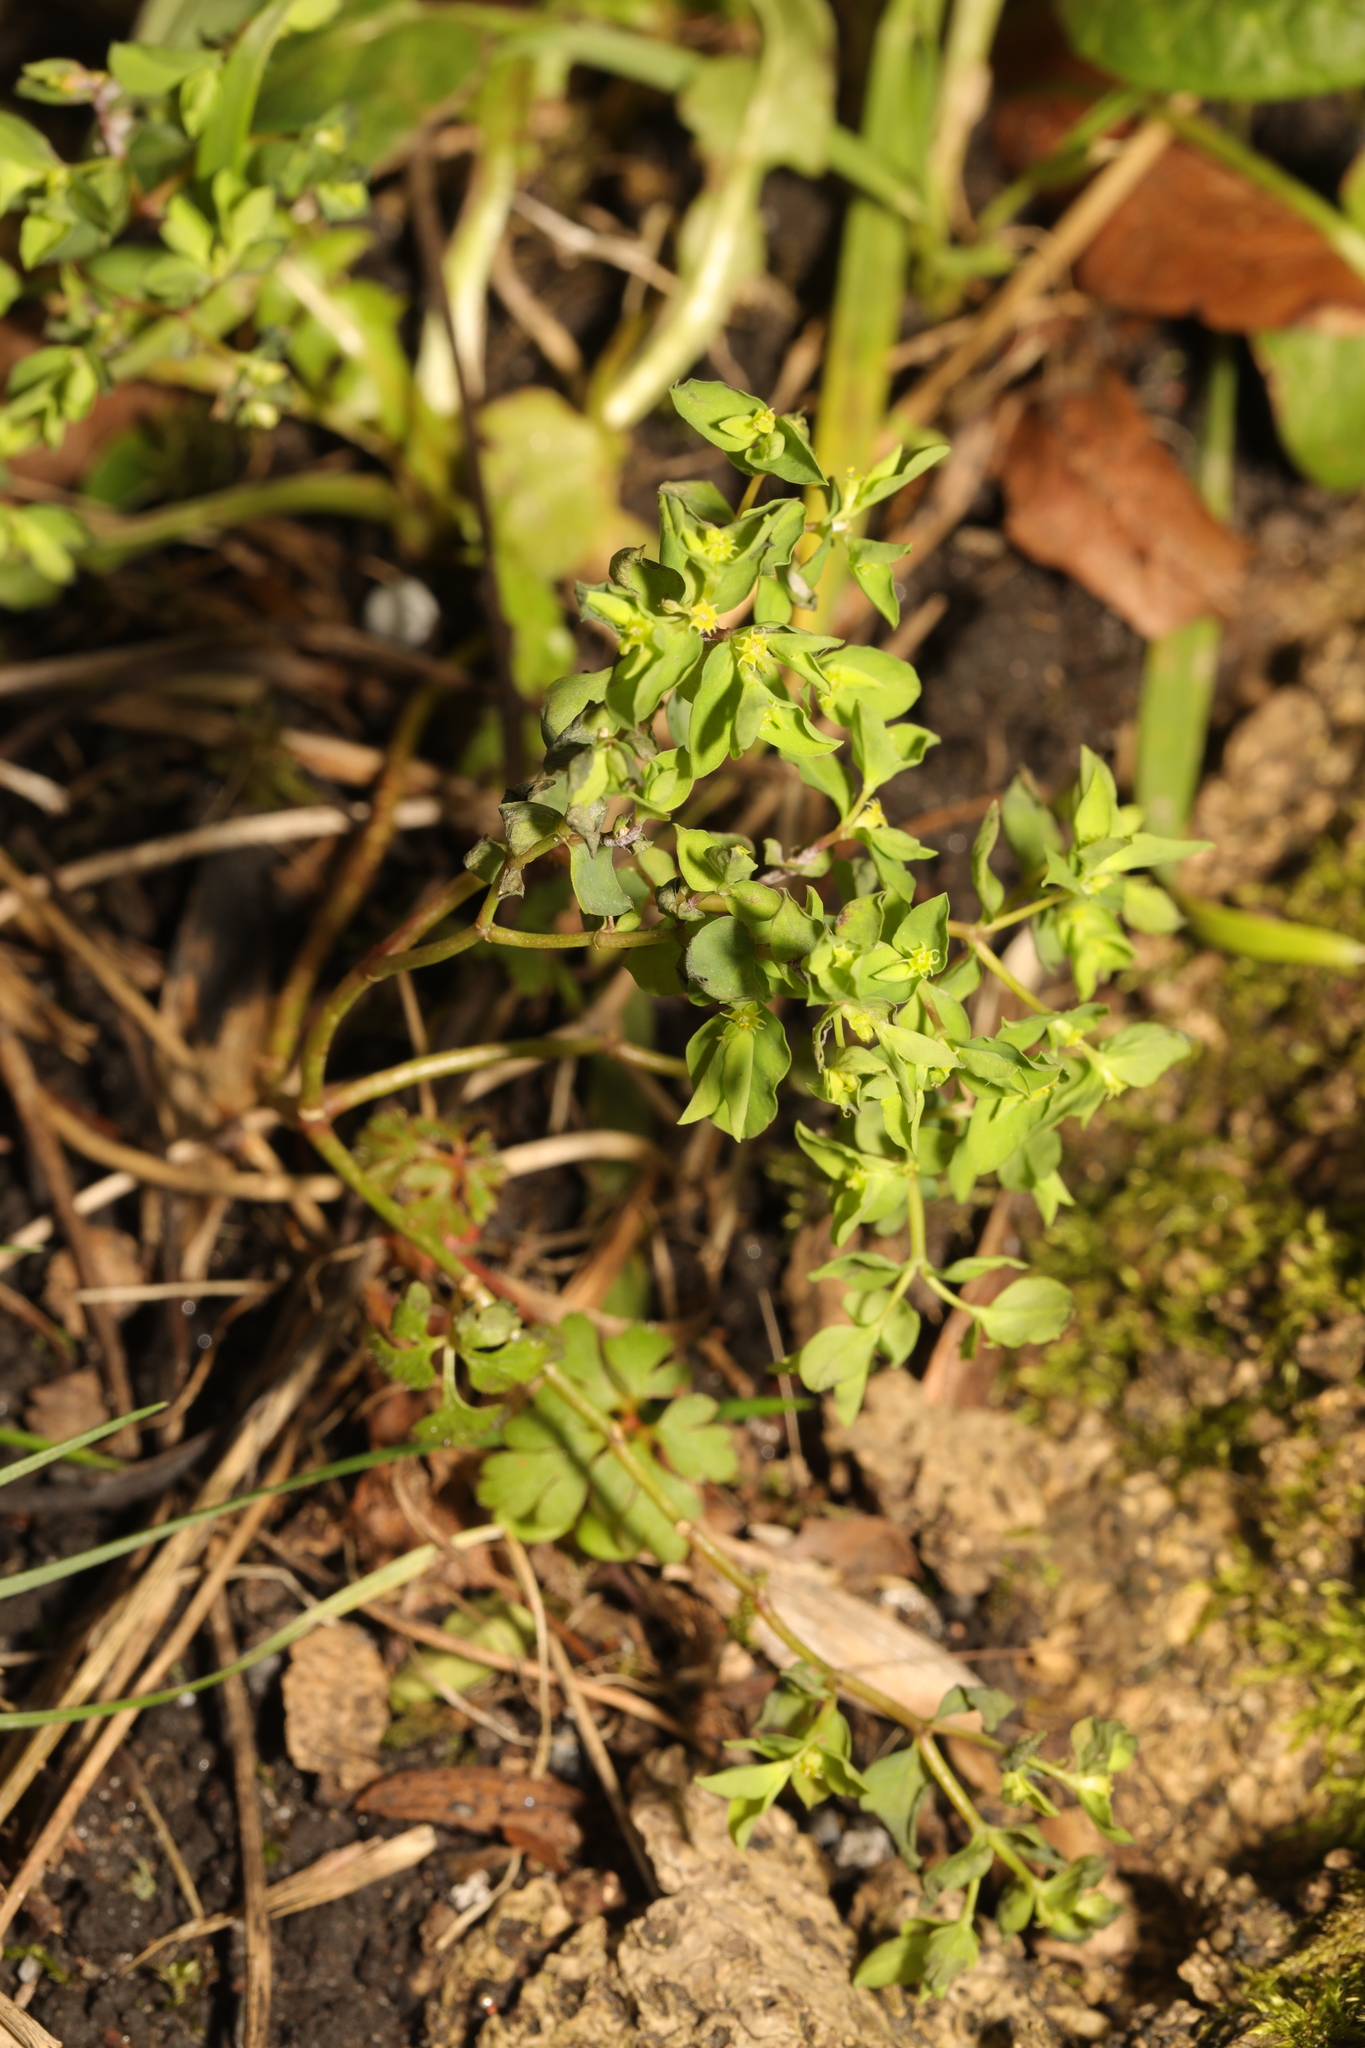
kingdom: Plantae
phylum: Tracheophyta
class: Magnoliopsida
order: Malpighiales
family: Euphorbiaceae
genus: Euphorbia
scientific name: Euphorbia peplus
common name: Petty spurge
